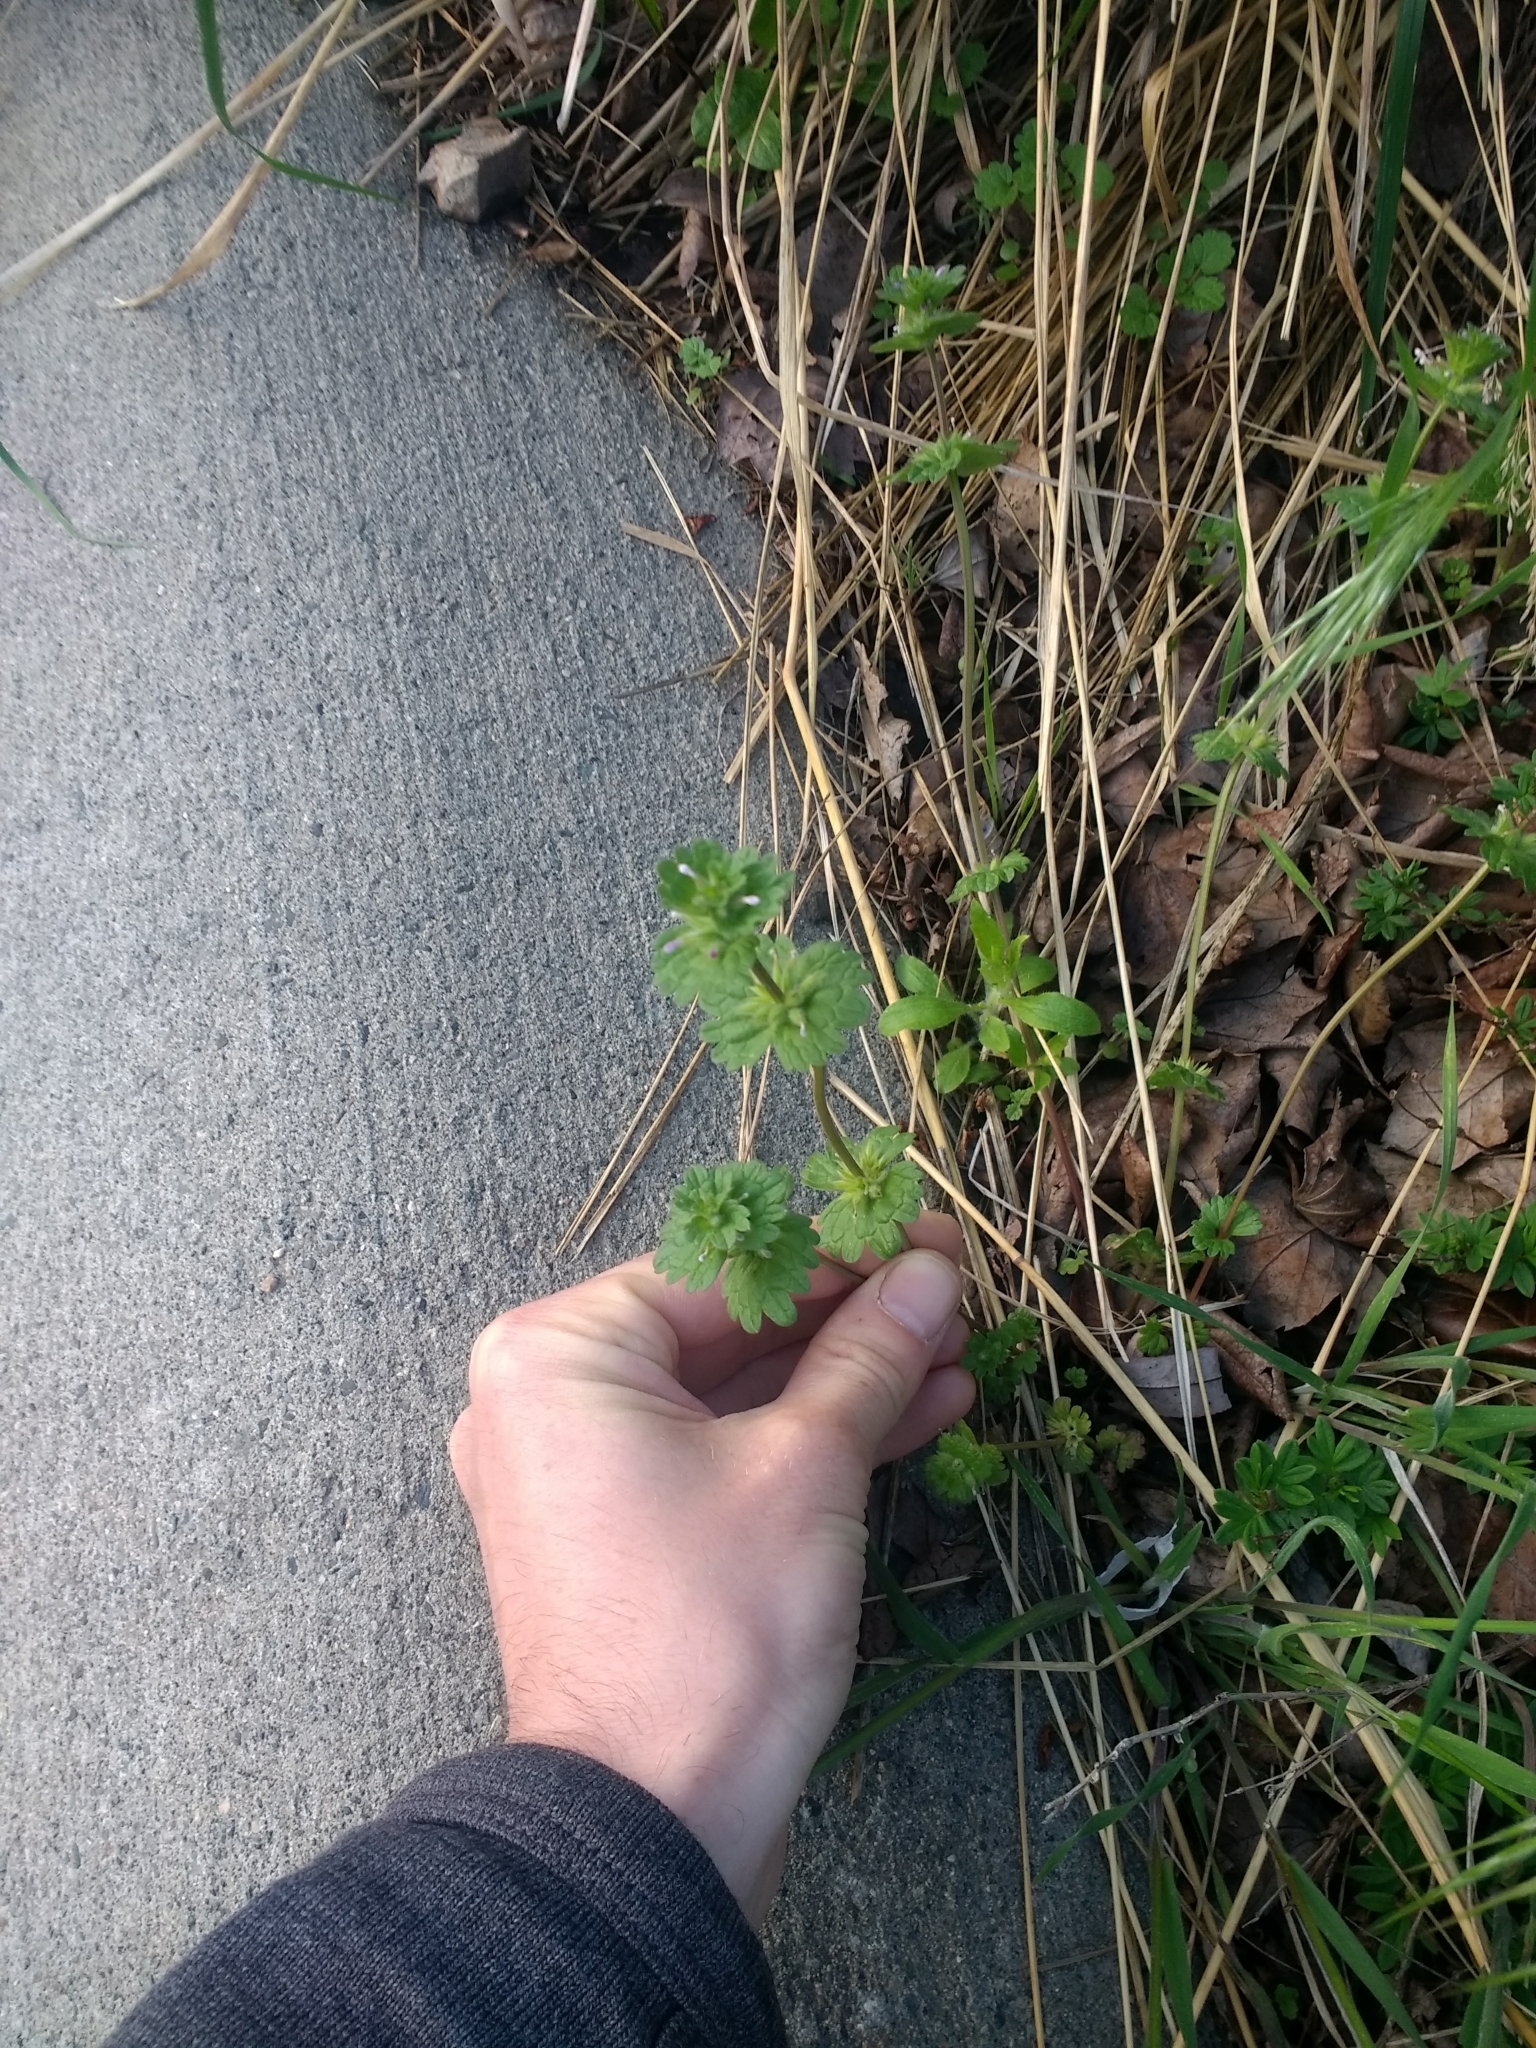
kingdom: Plantae
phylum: Tracheophyta
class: Magnoliopsida
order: Lamiales
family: Lamiaceae
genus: Lamium
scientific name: Lamium amplexicaule
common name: Henbit dead-nettle
